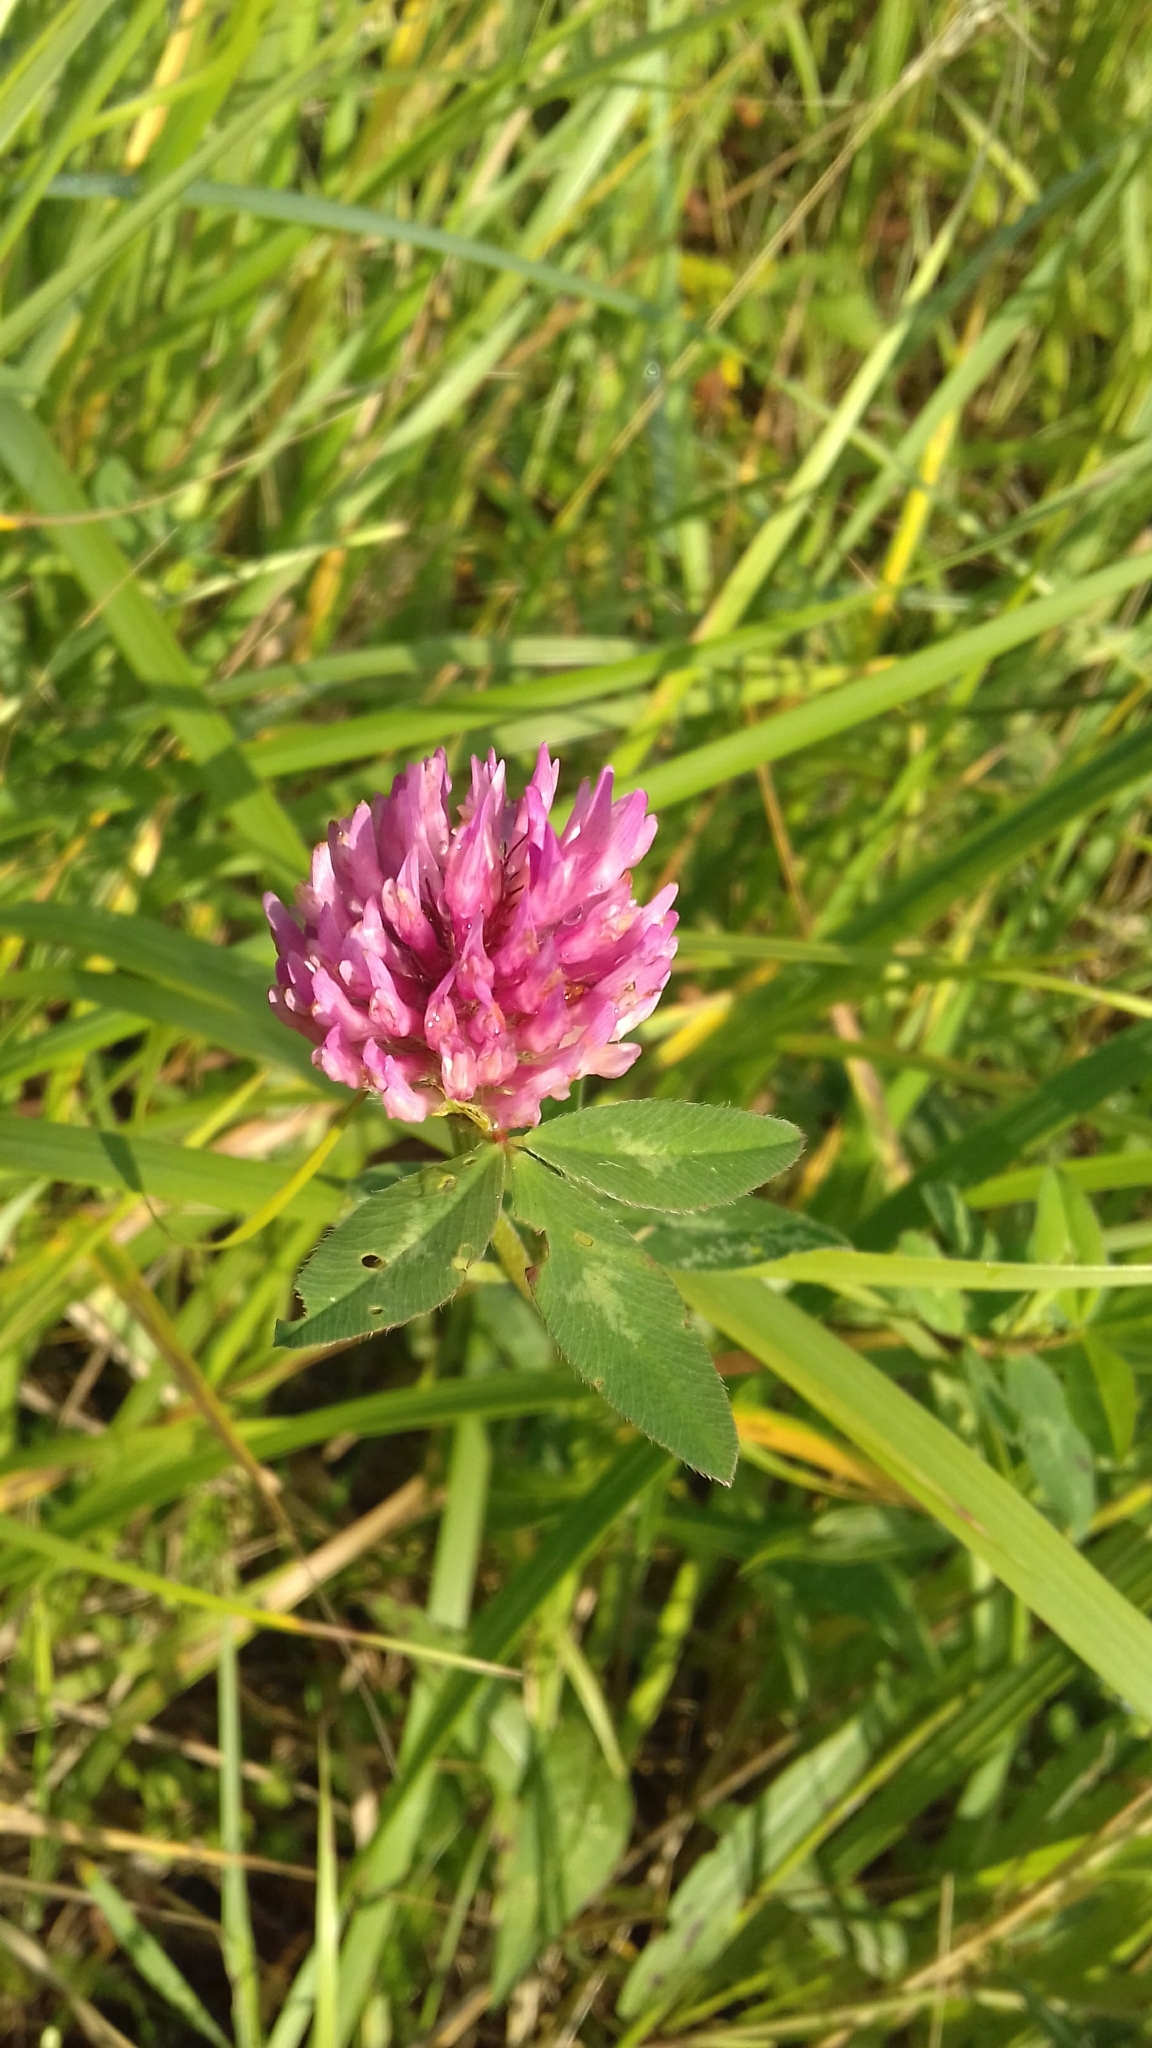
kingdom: Plantae
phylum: Tracheophyta
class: Magnoliopsida
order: Fabales
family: Fabaceae
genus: Trifolium
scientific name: Trifolium pratense
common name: Red clover
